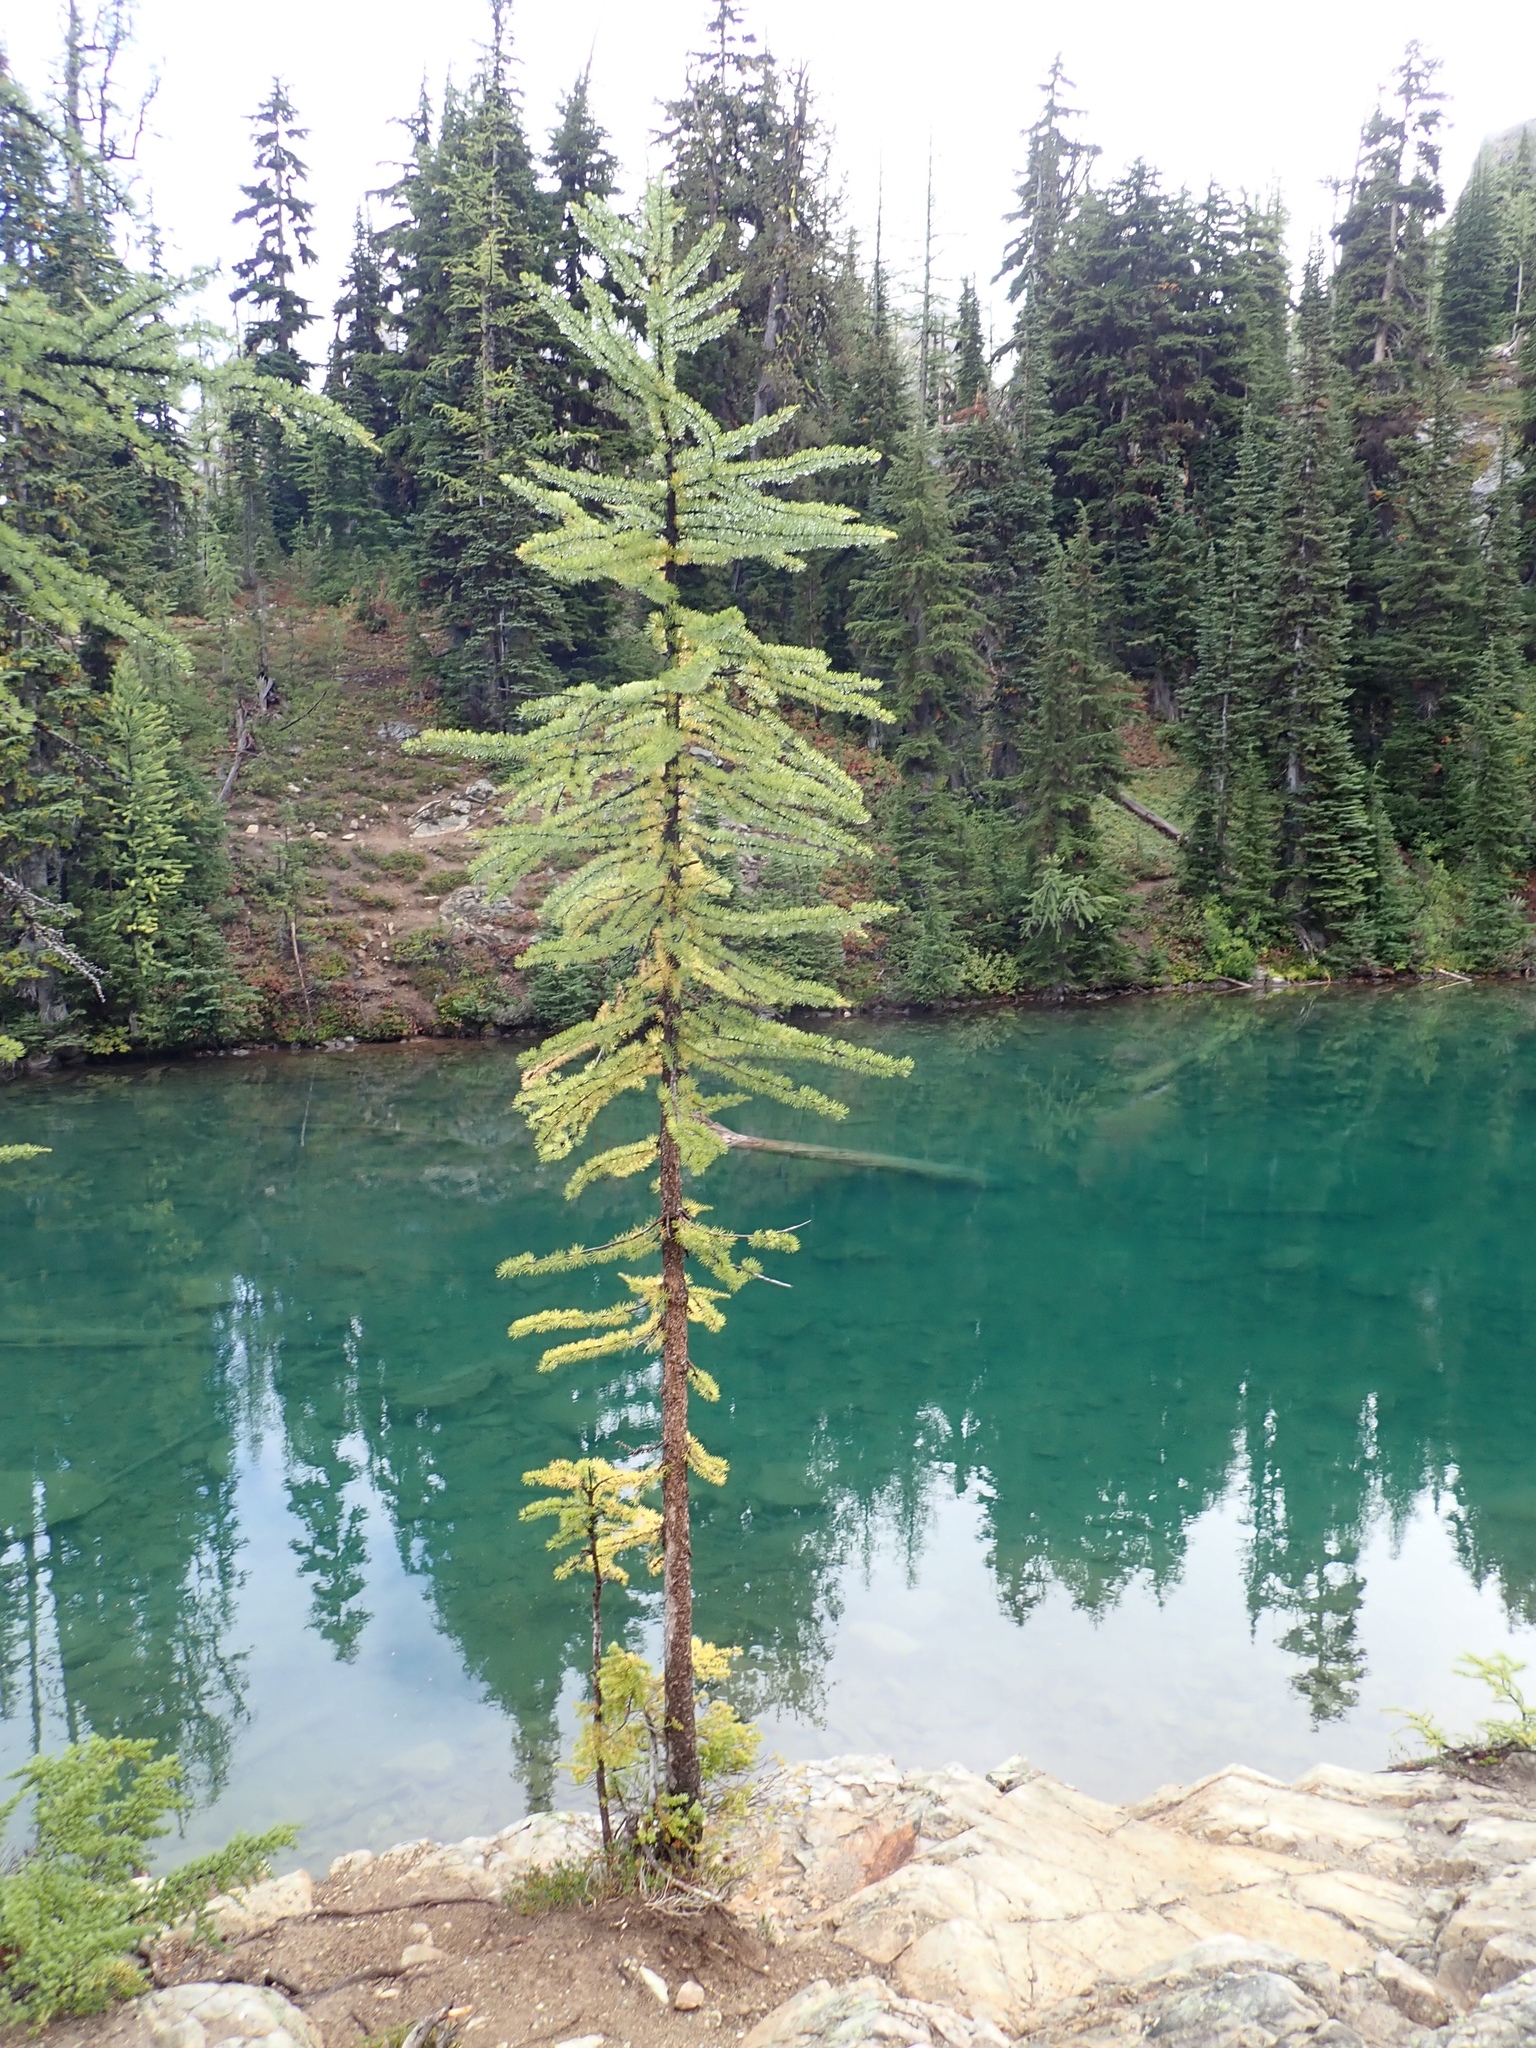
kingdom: Plantae
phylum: Tracheophyta
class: Pinopsida
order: Pinales
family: Pinaceae
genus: Larix
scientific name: Larix lyallii
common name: Alpine larch
